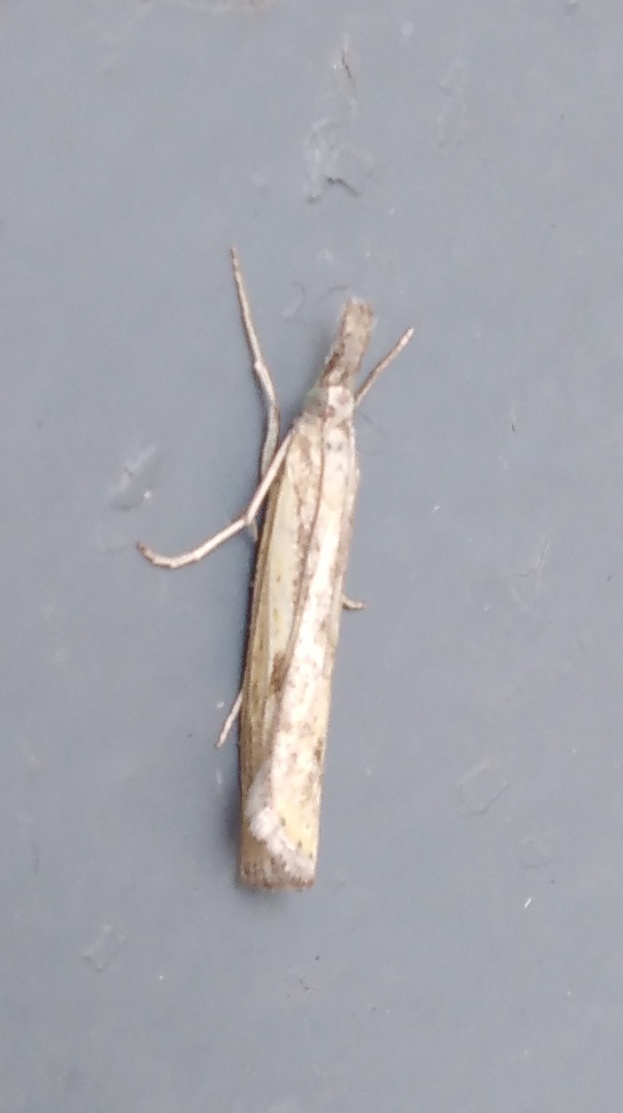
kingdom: Animalia
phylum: Arthropoda
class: Insecta
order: Lepidoptera
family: Crambidae
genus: Agriphila
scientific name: Agriphila inquinatella
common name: Barred grass-veneer
